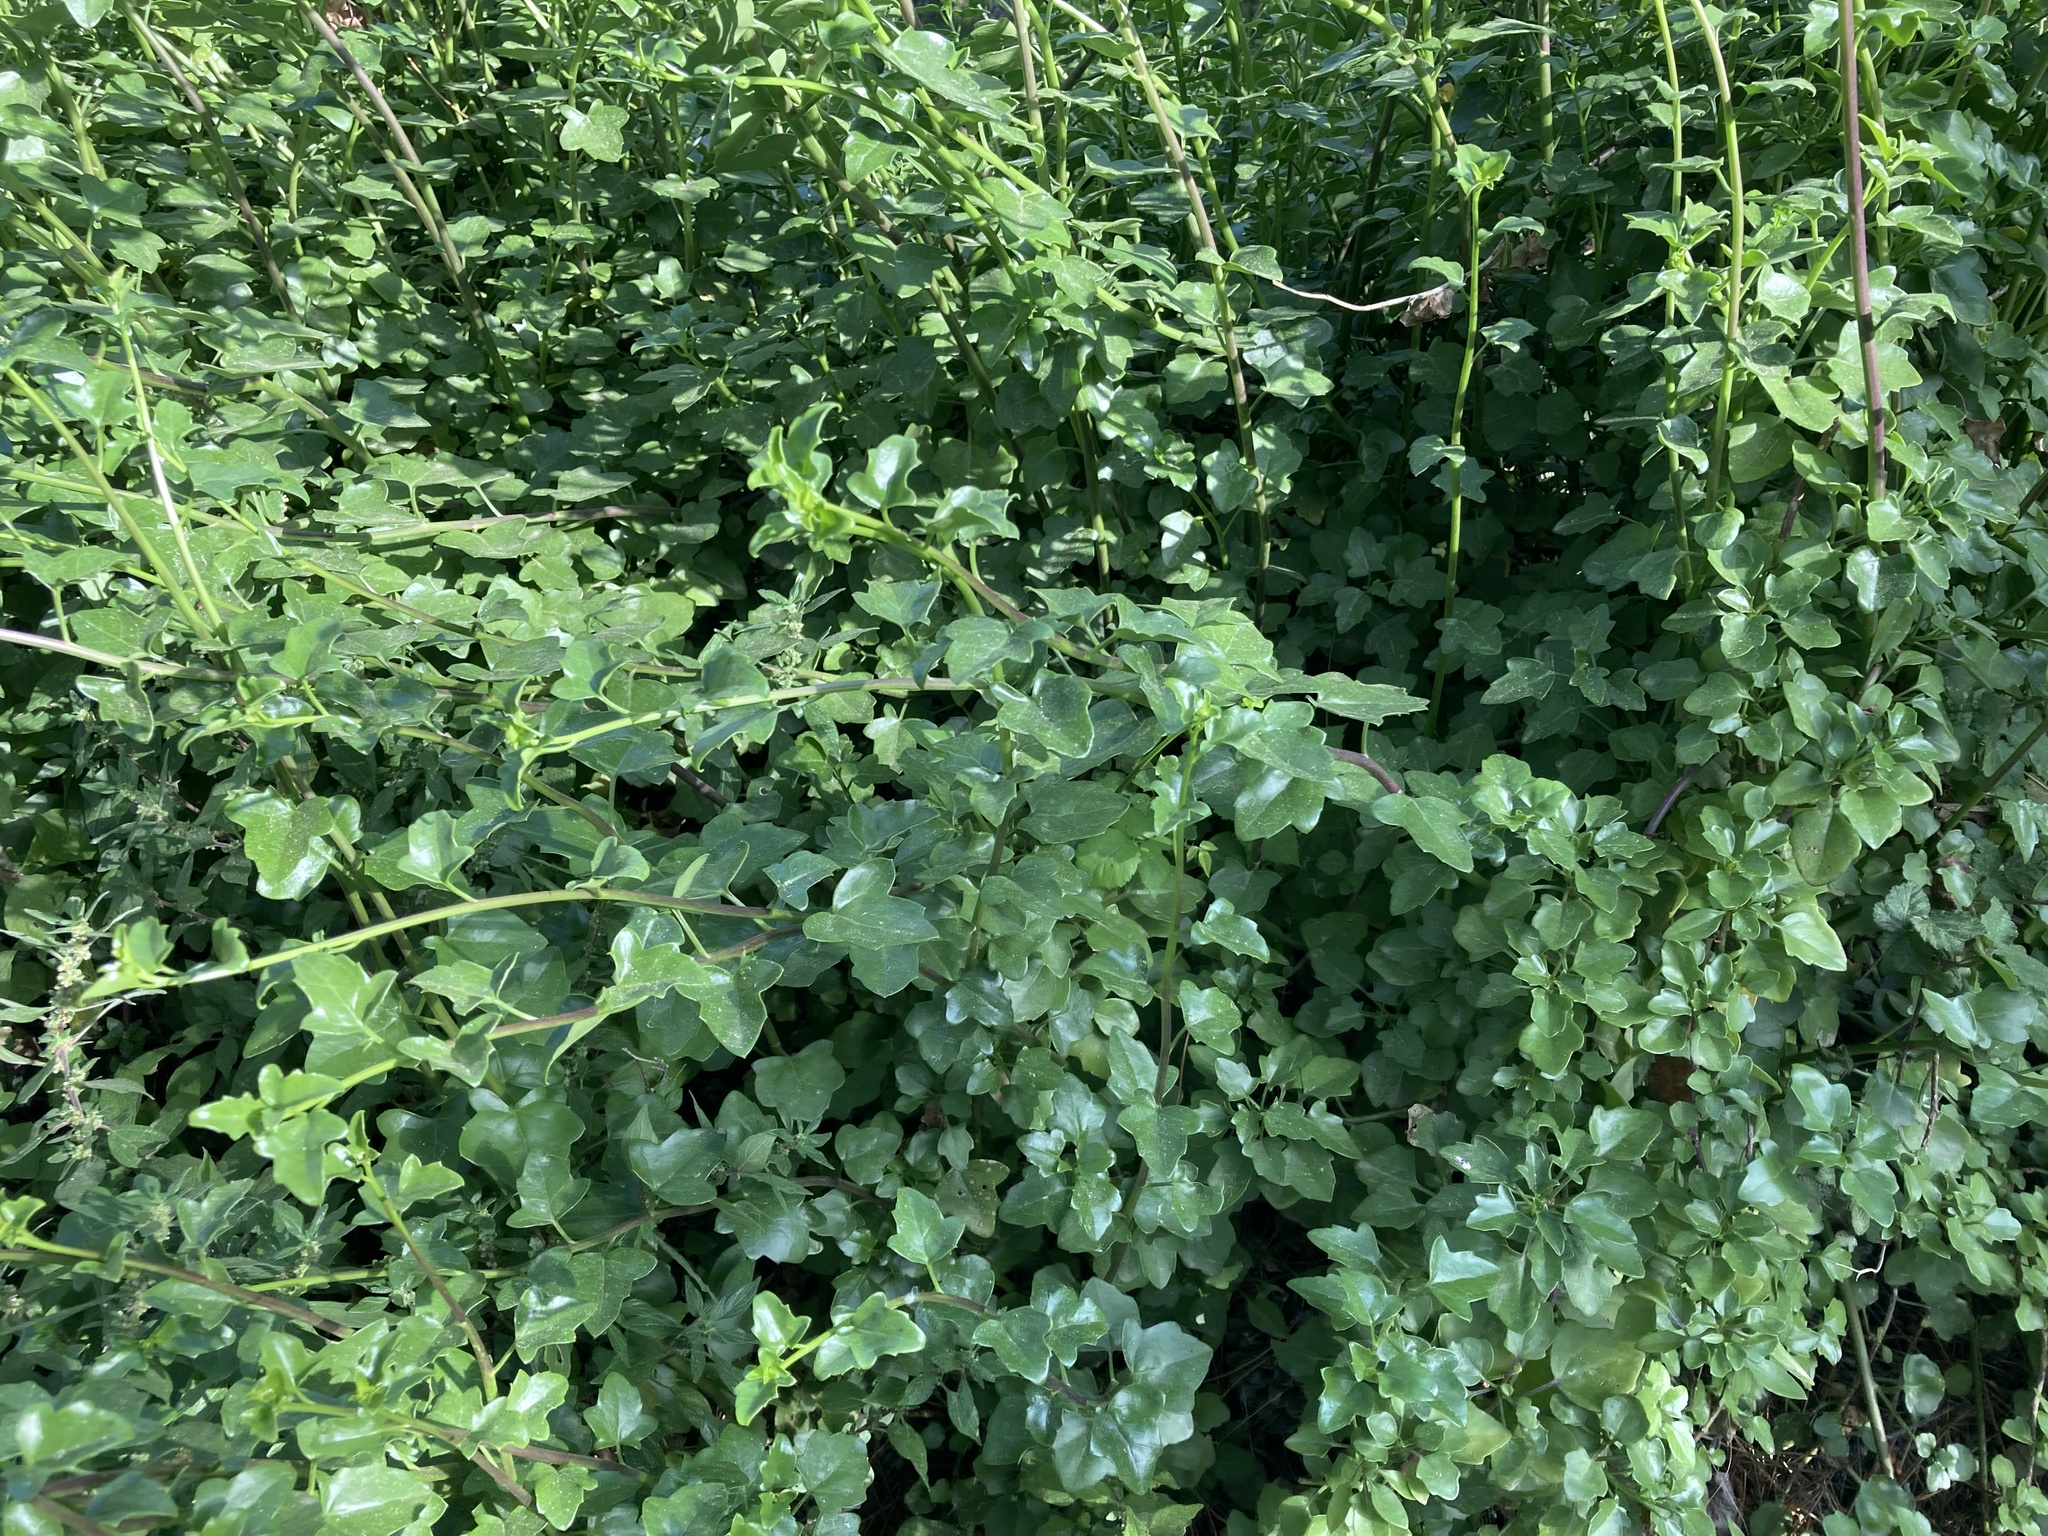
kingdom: Plantae
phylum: Tracheophyta
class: Magnoliopsida
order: Asterales
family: Asteraceae
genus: Senecio
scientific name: Senecio angulatus
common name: Climbing groundsel
